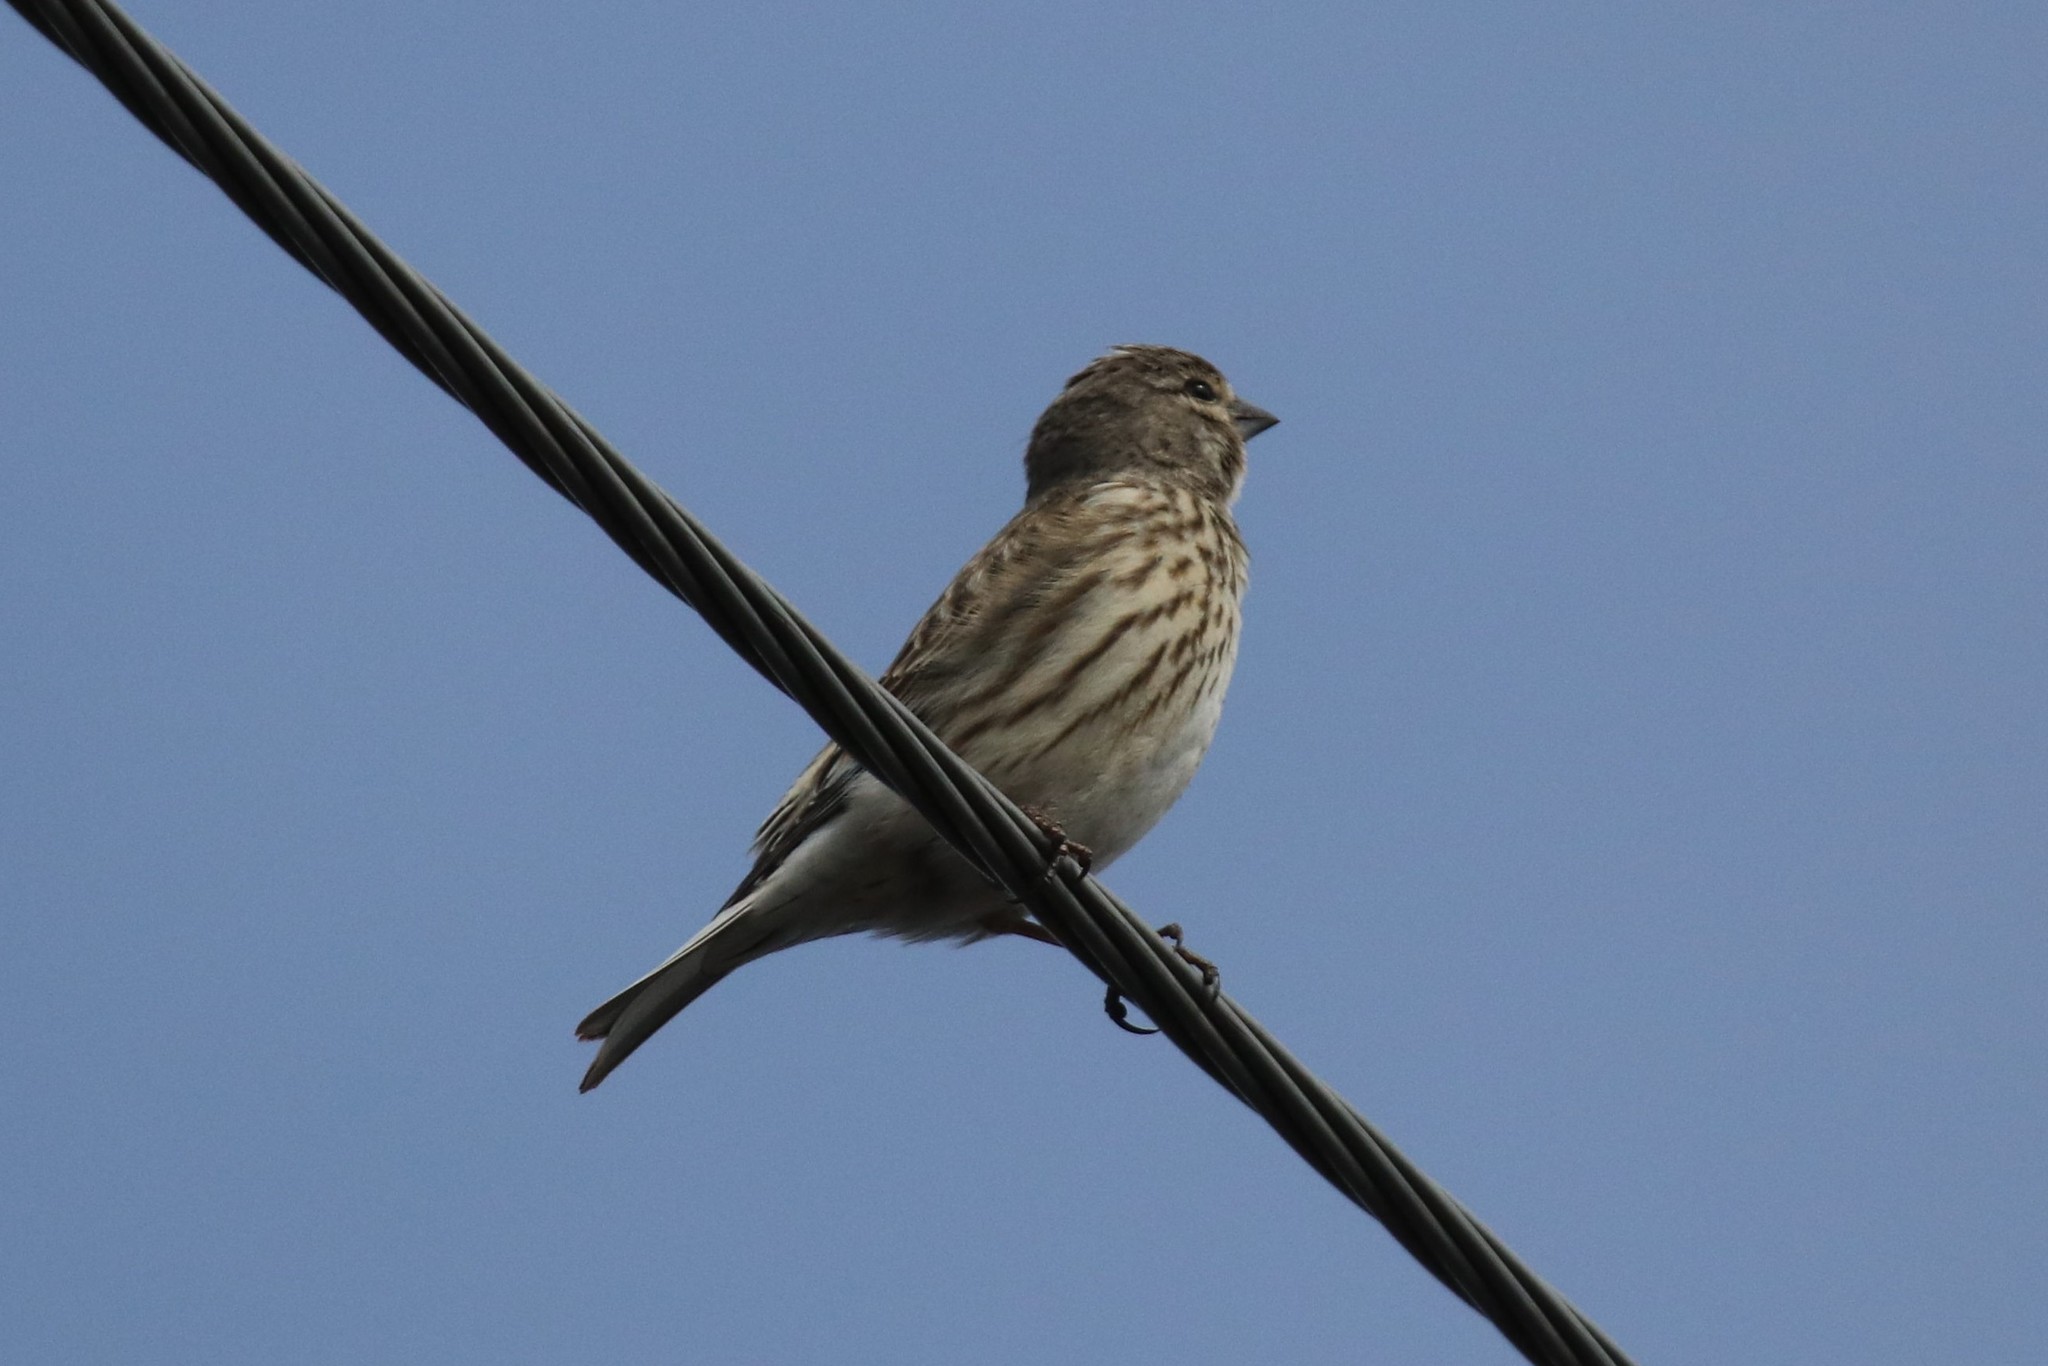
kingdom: Animalia
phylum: Chordata
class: Aves
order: Passeriformes
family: Fringillidae
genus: Linaria
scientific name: Linaria cannabina
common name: Common linnet
